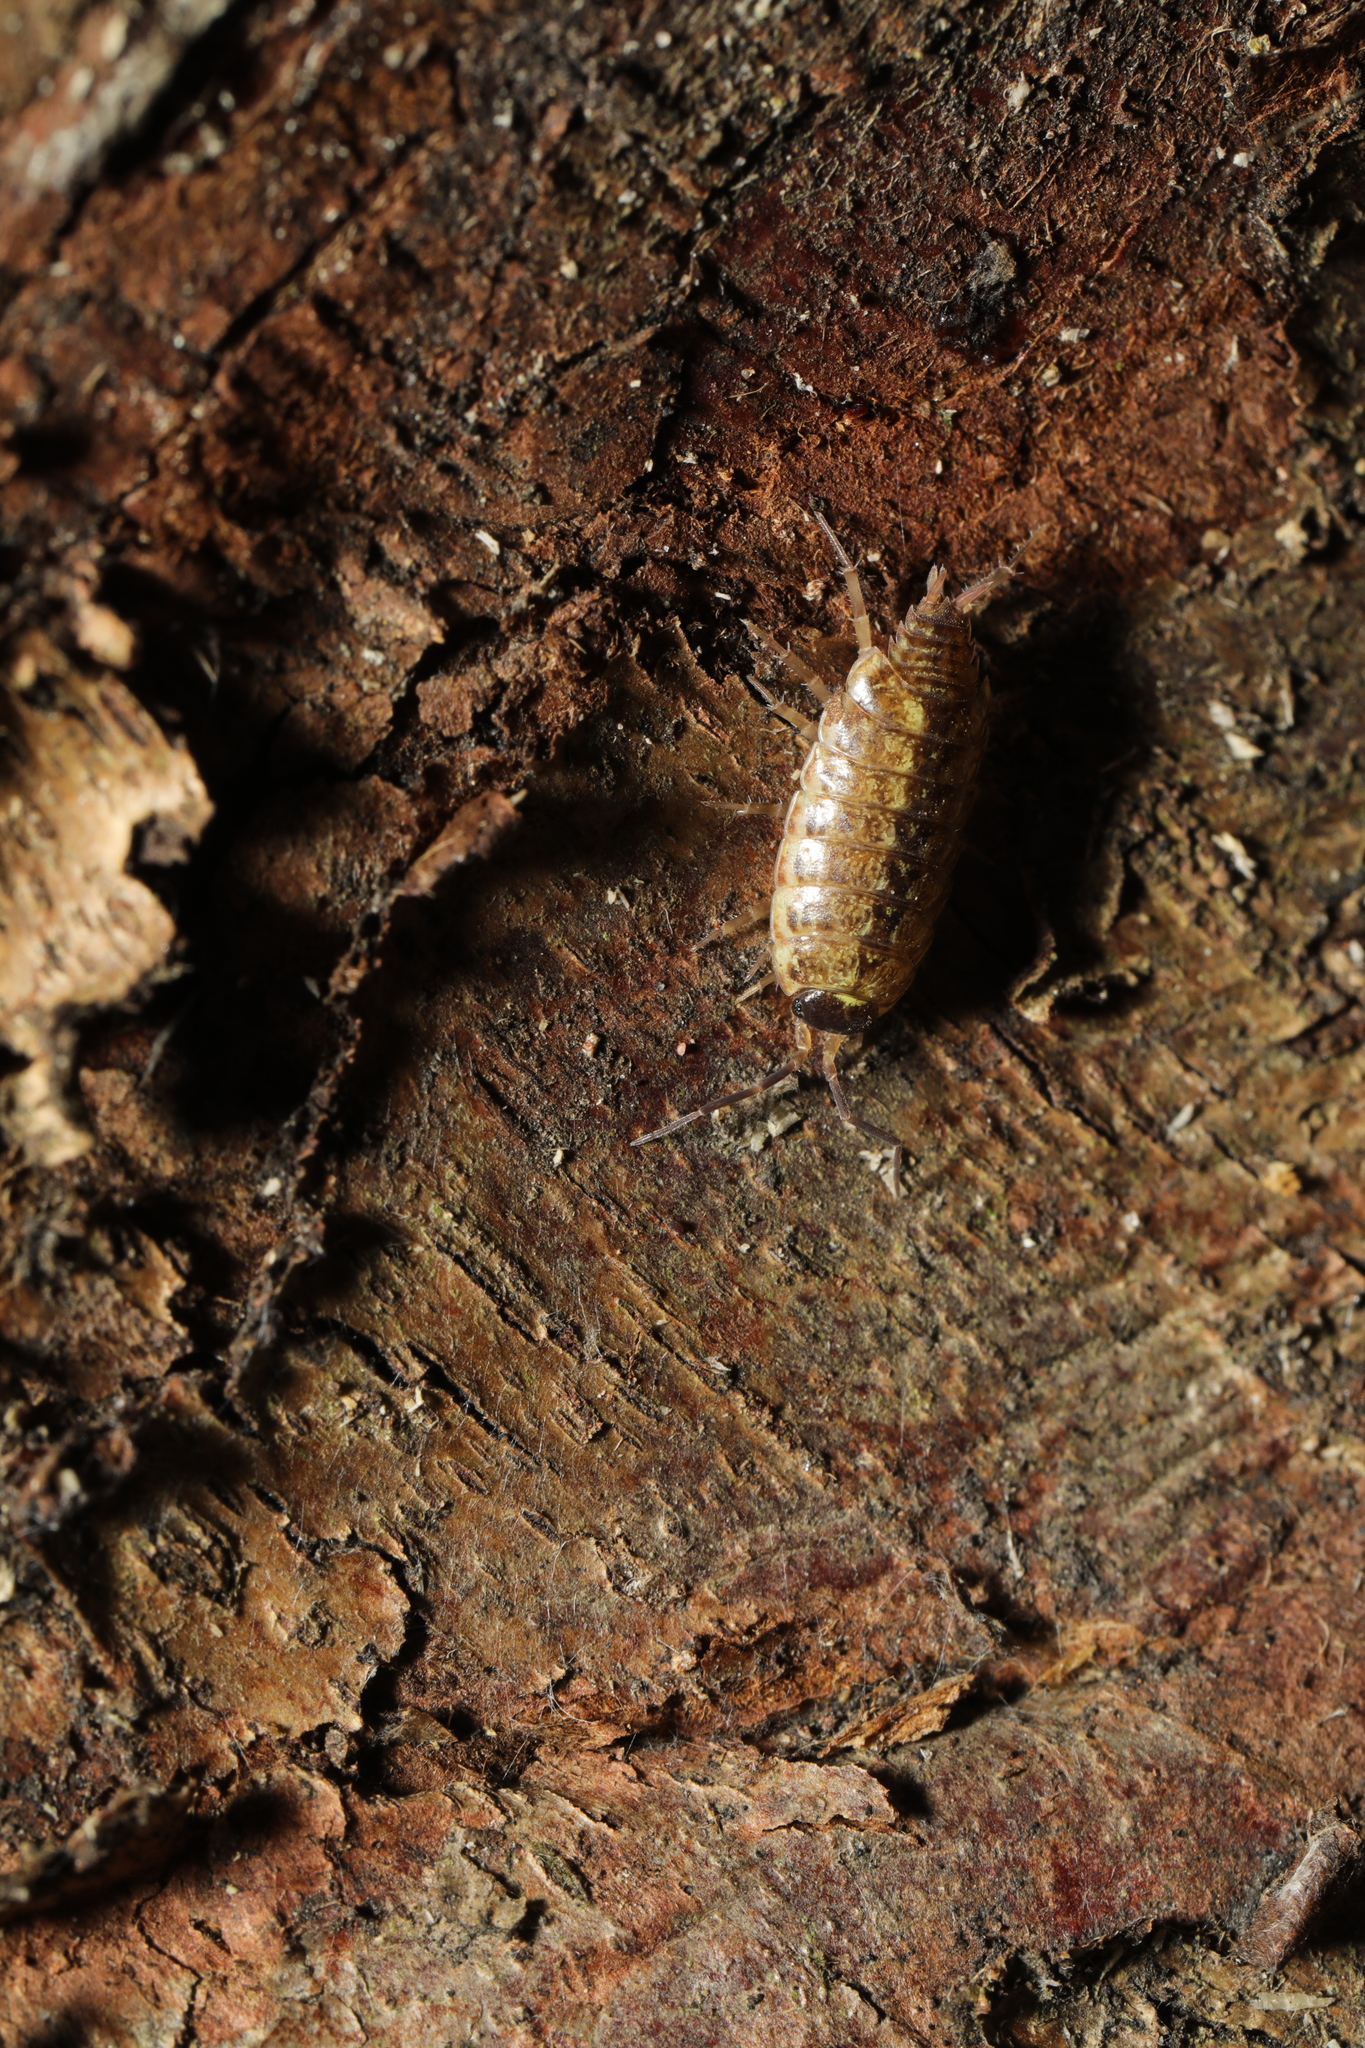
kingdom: Animalia
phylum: Arthropoda
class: Malacostraca
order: Isopoda
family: Philosciidae
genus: Philoscia
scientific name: Philoscia muscorum
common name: Common striped woodlouse
